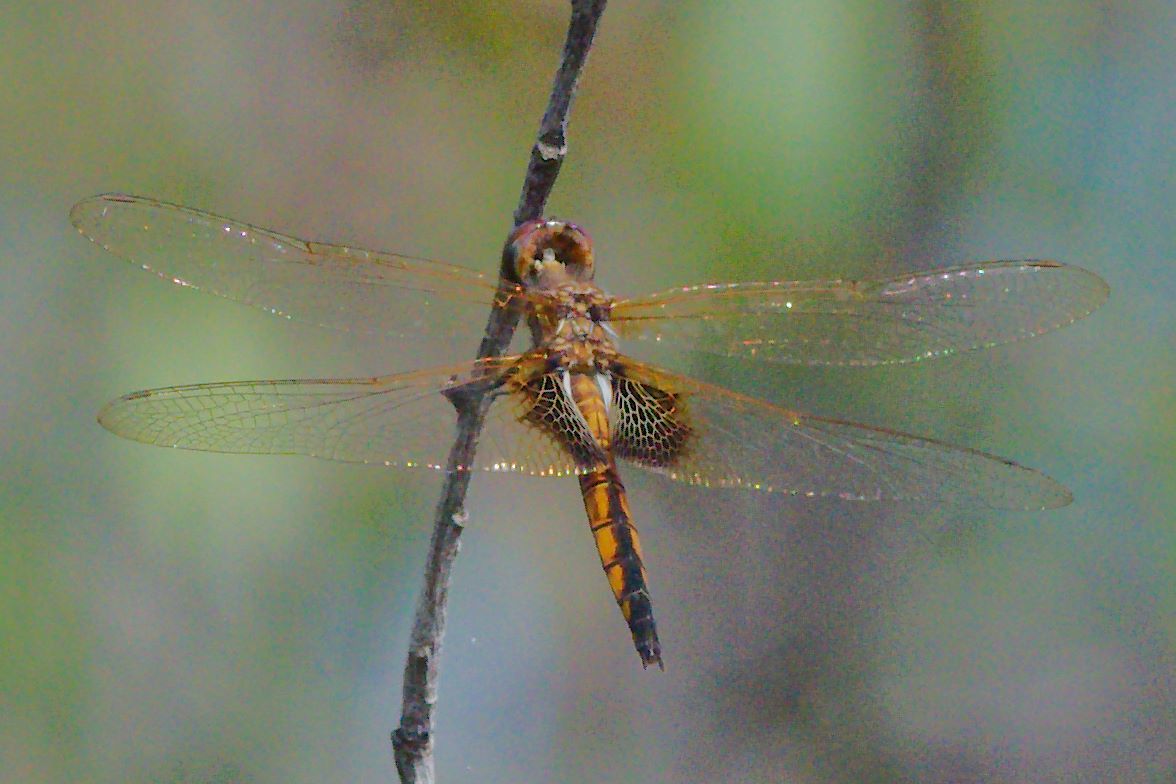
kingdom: Animalia
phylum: Arthropoda
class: Insecta
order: Odonata
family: Libellulidae
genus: Miathyria
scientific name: Miathyria marcella
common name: Hyacinth glider
